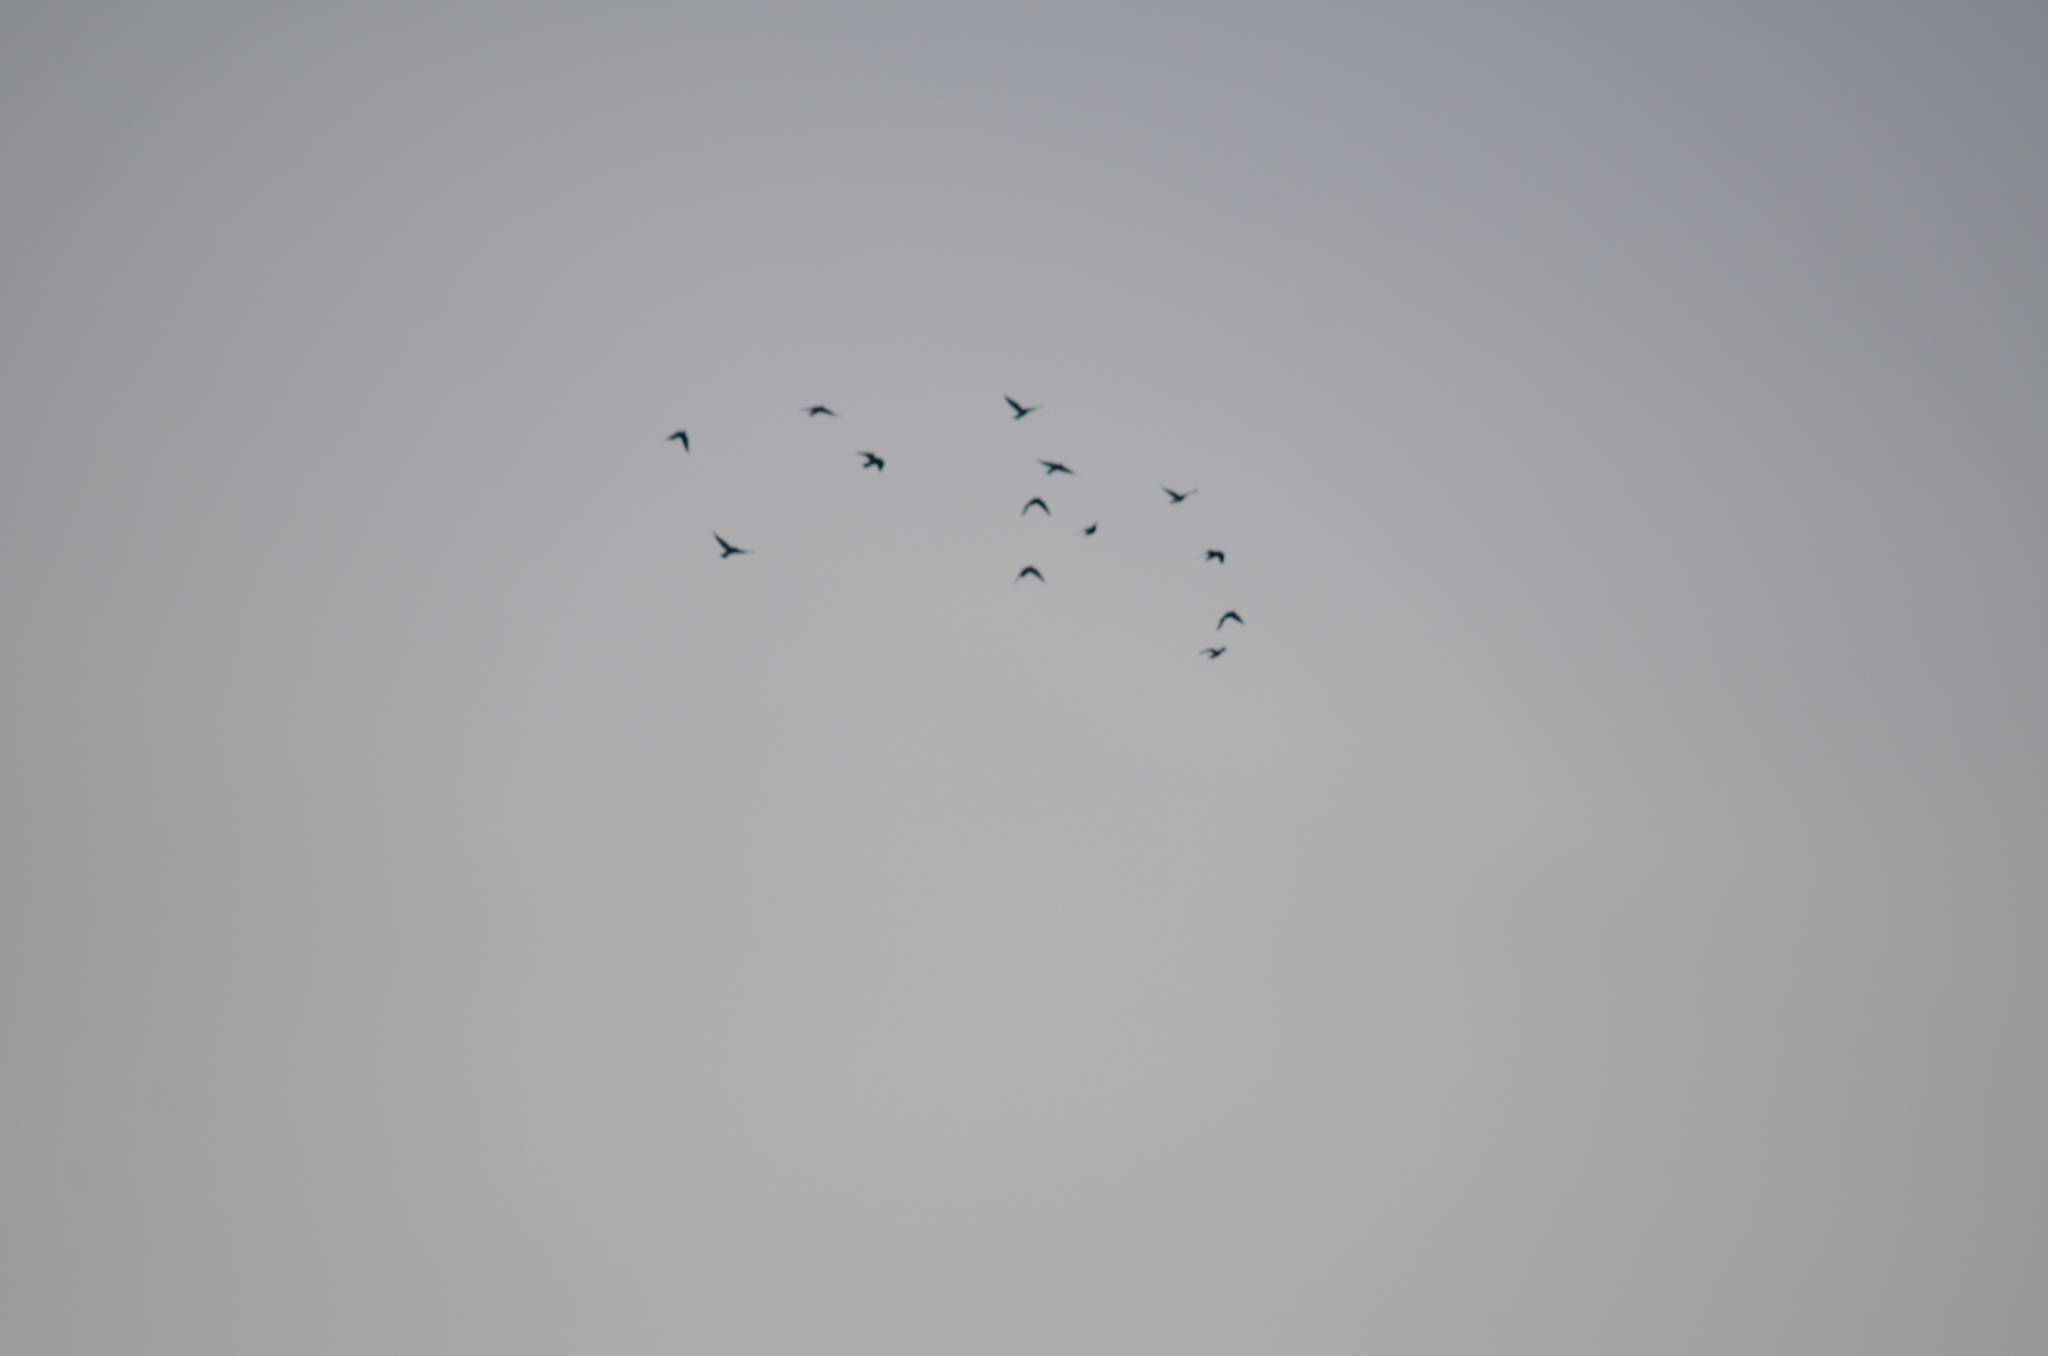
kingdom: Animalia
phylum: Chordata
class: Aves
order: Columbiformes
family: Columbidae
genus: Columba
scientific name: Columba livia
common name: Rock pigeon
